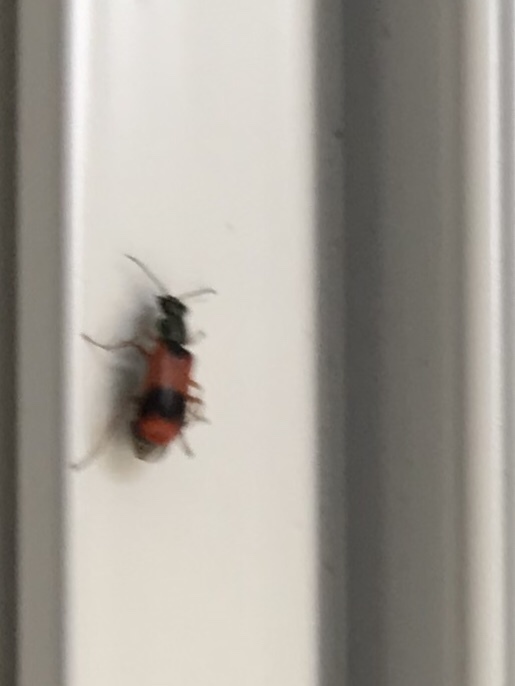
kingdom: Animalia
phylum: Arthropoda
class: Insecta
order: Coleoptera
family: Melyridae
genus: Anthocomus
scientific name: Anthocomus equestris
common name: Black-banded soft-winged flower beetle
